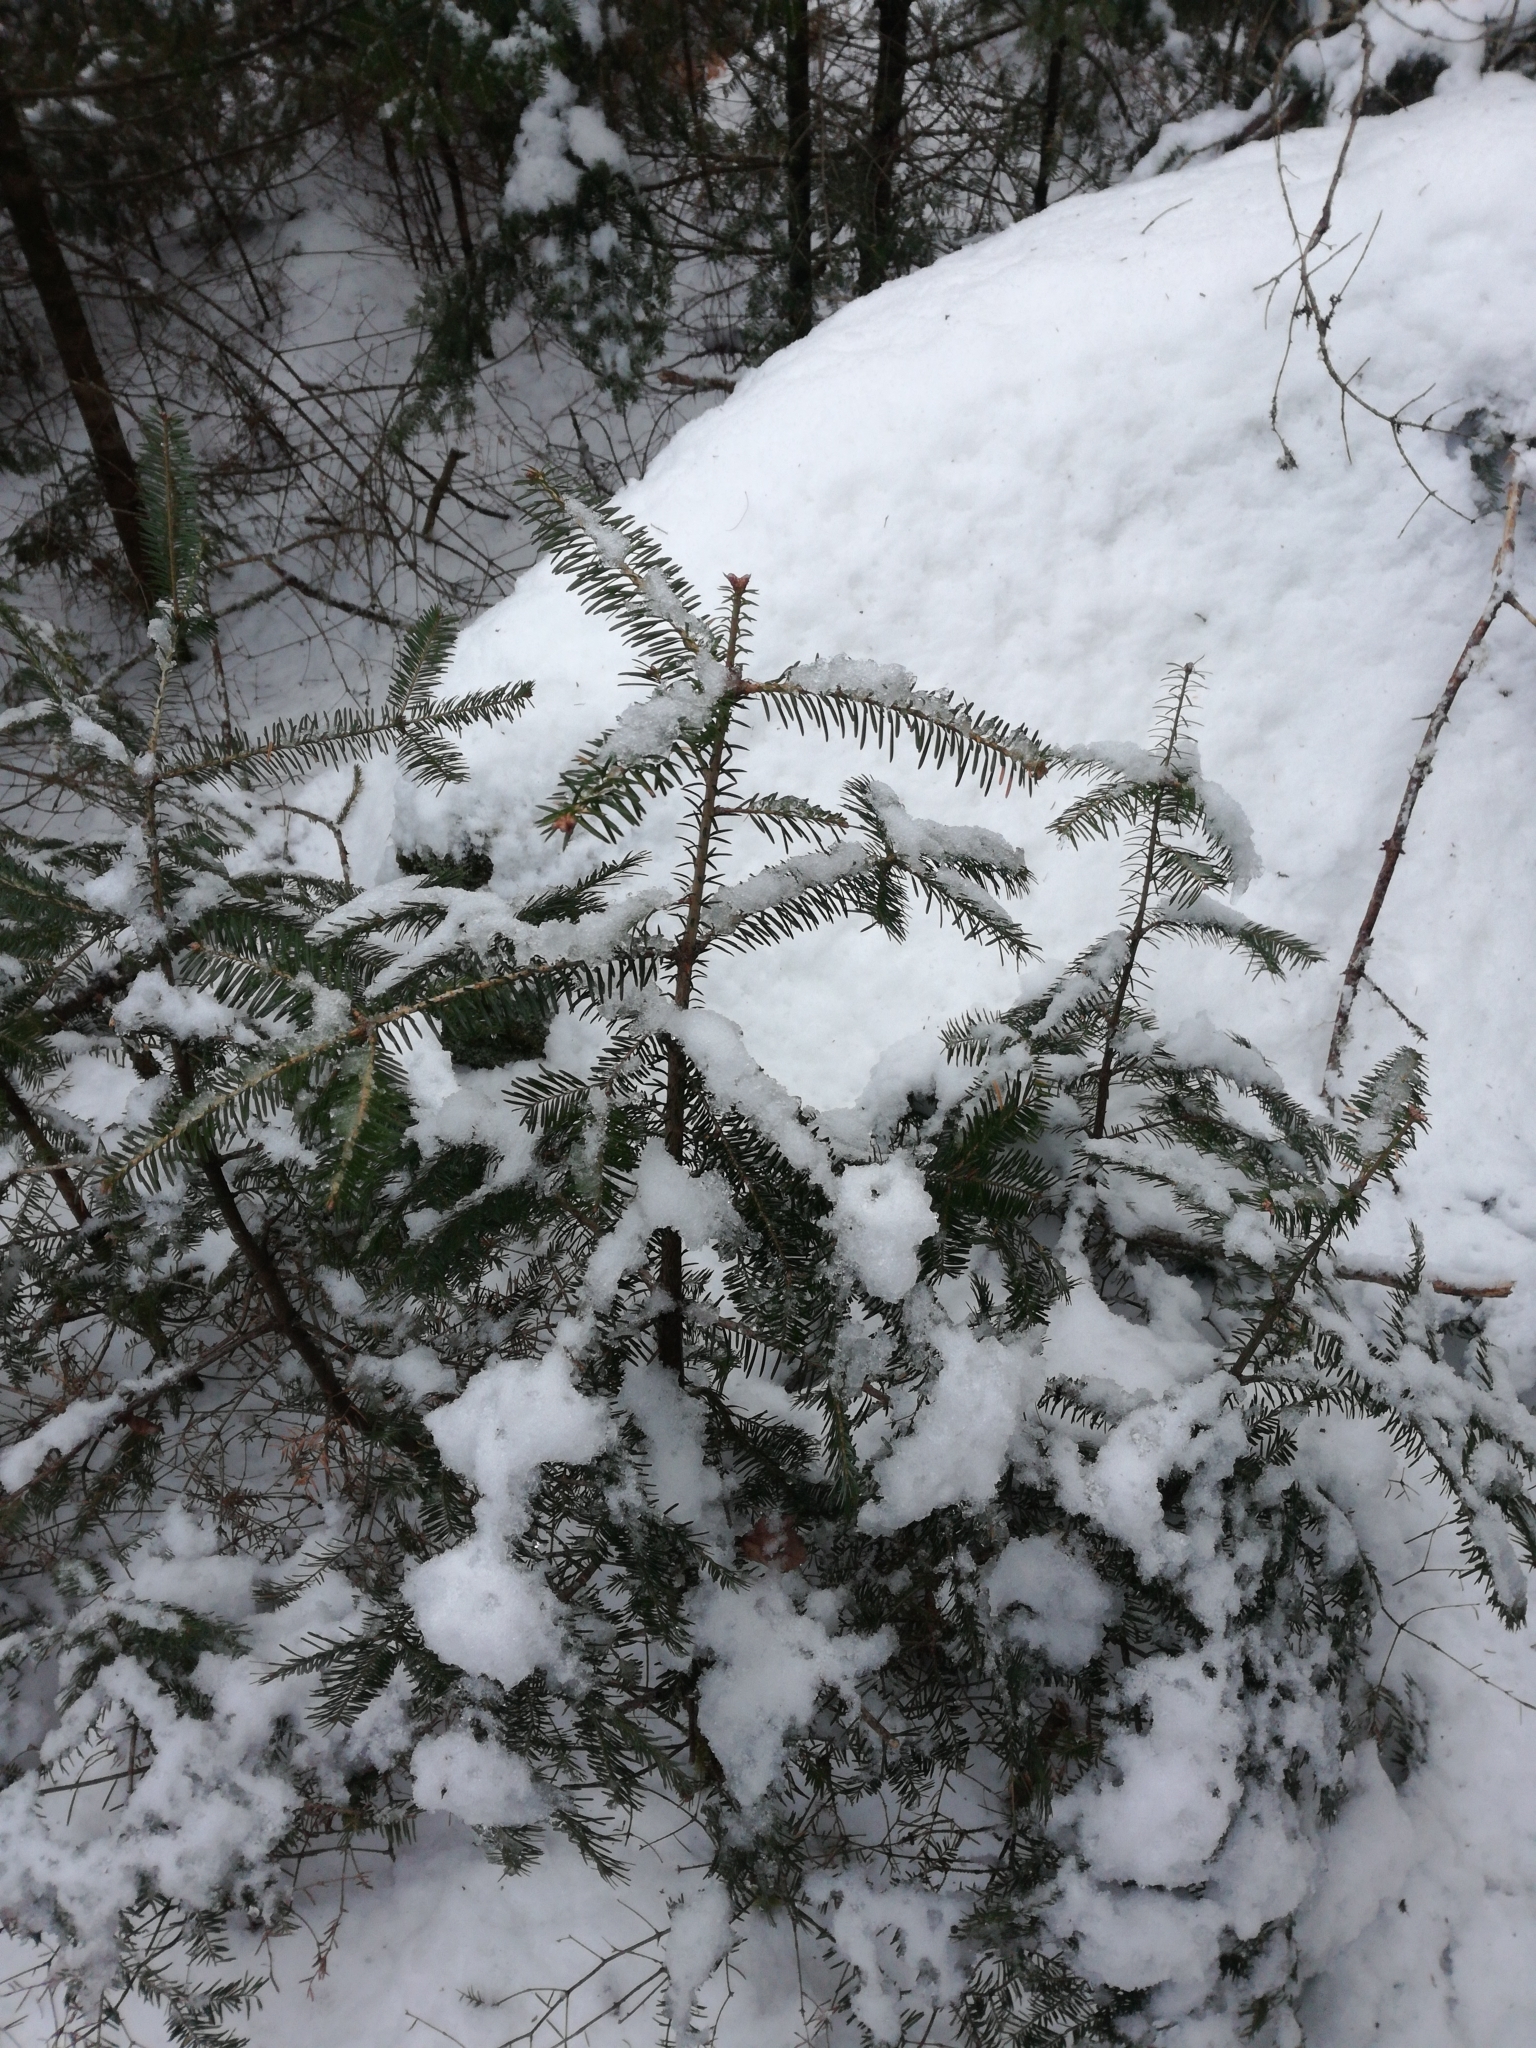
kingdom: Plantae
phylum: Tracheophyta
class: Pinopsida
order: Pinales
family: Pinaceae
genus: Abies
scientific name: Abies balsamea
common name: Balsam fir
